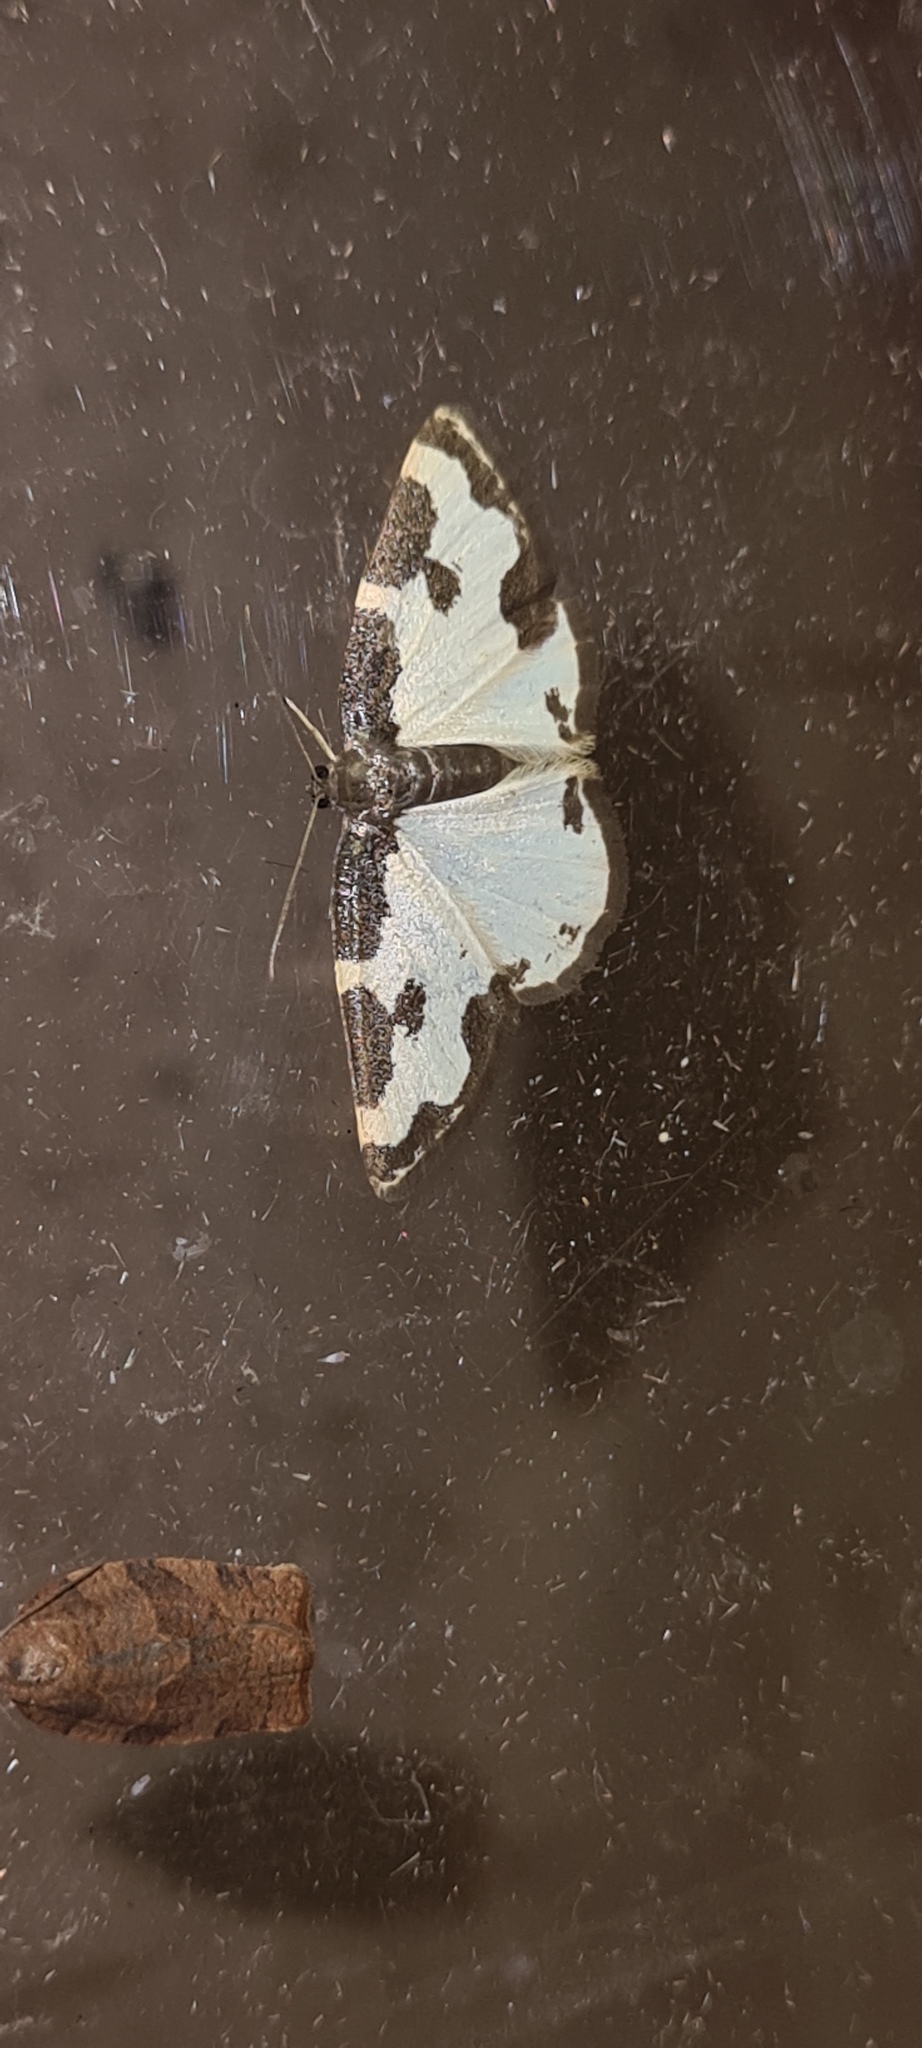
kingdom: Animalia
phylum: Arthropoda
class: Insecta
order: Lepidoptera
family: Geometridae
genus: Lomaspilis
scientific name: Lomaspilis marginata
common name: Clouded border
